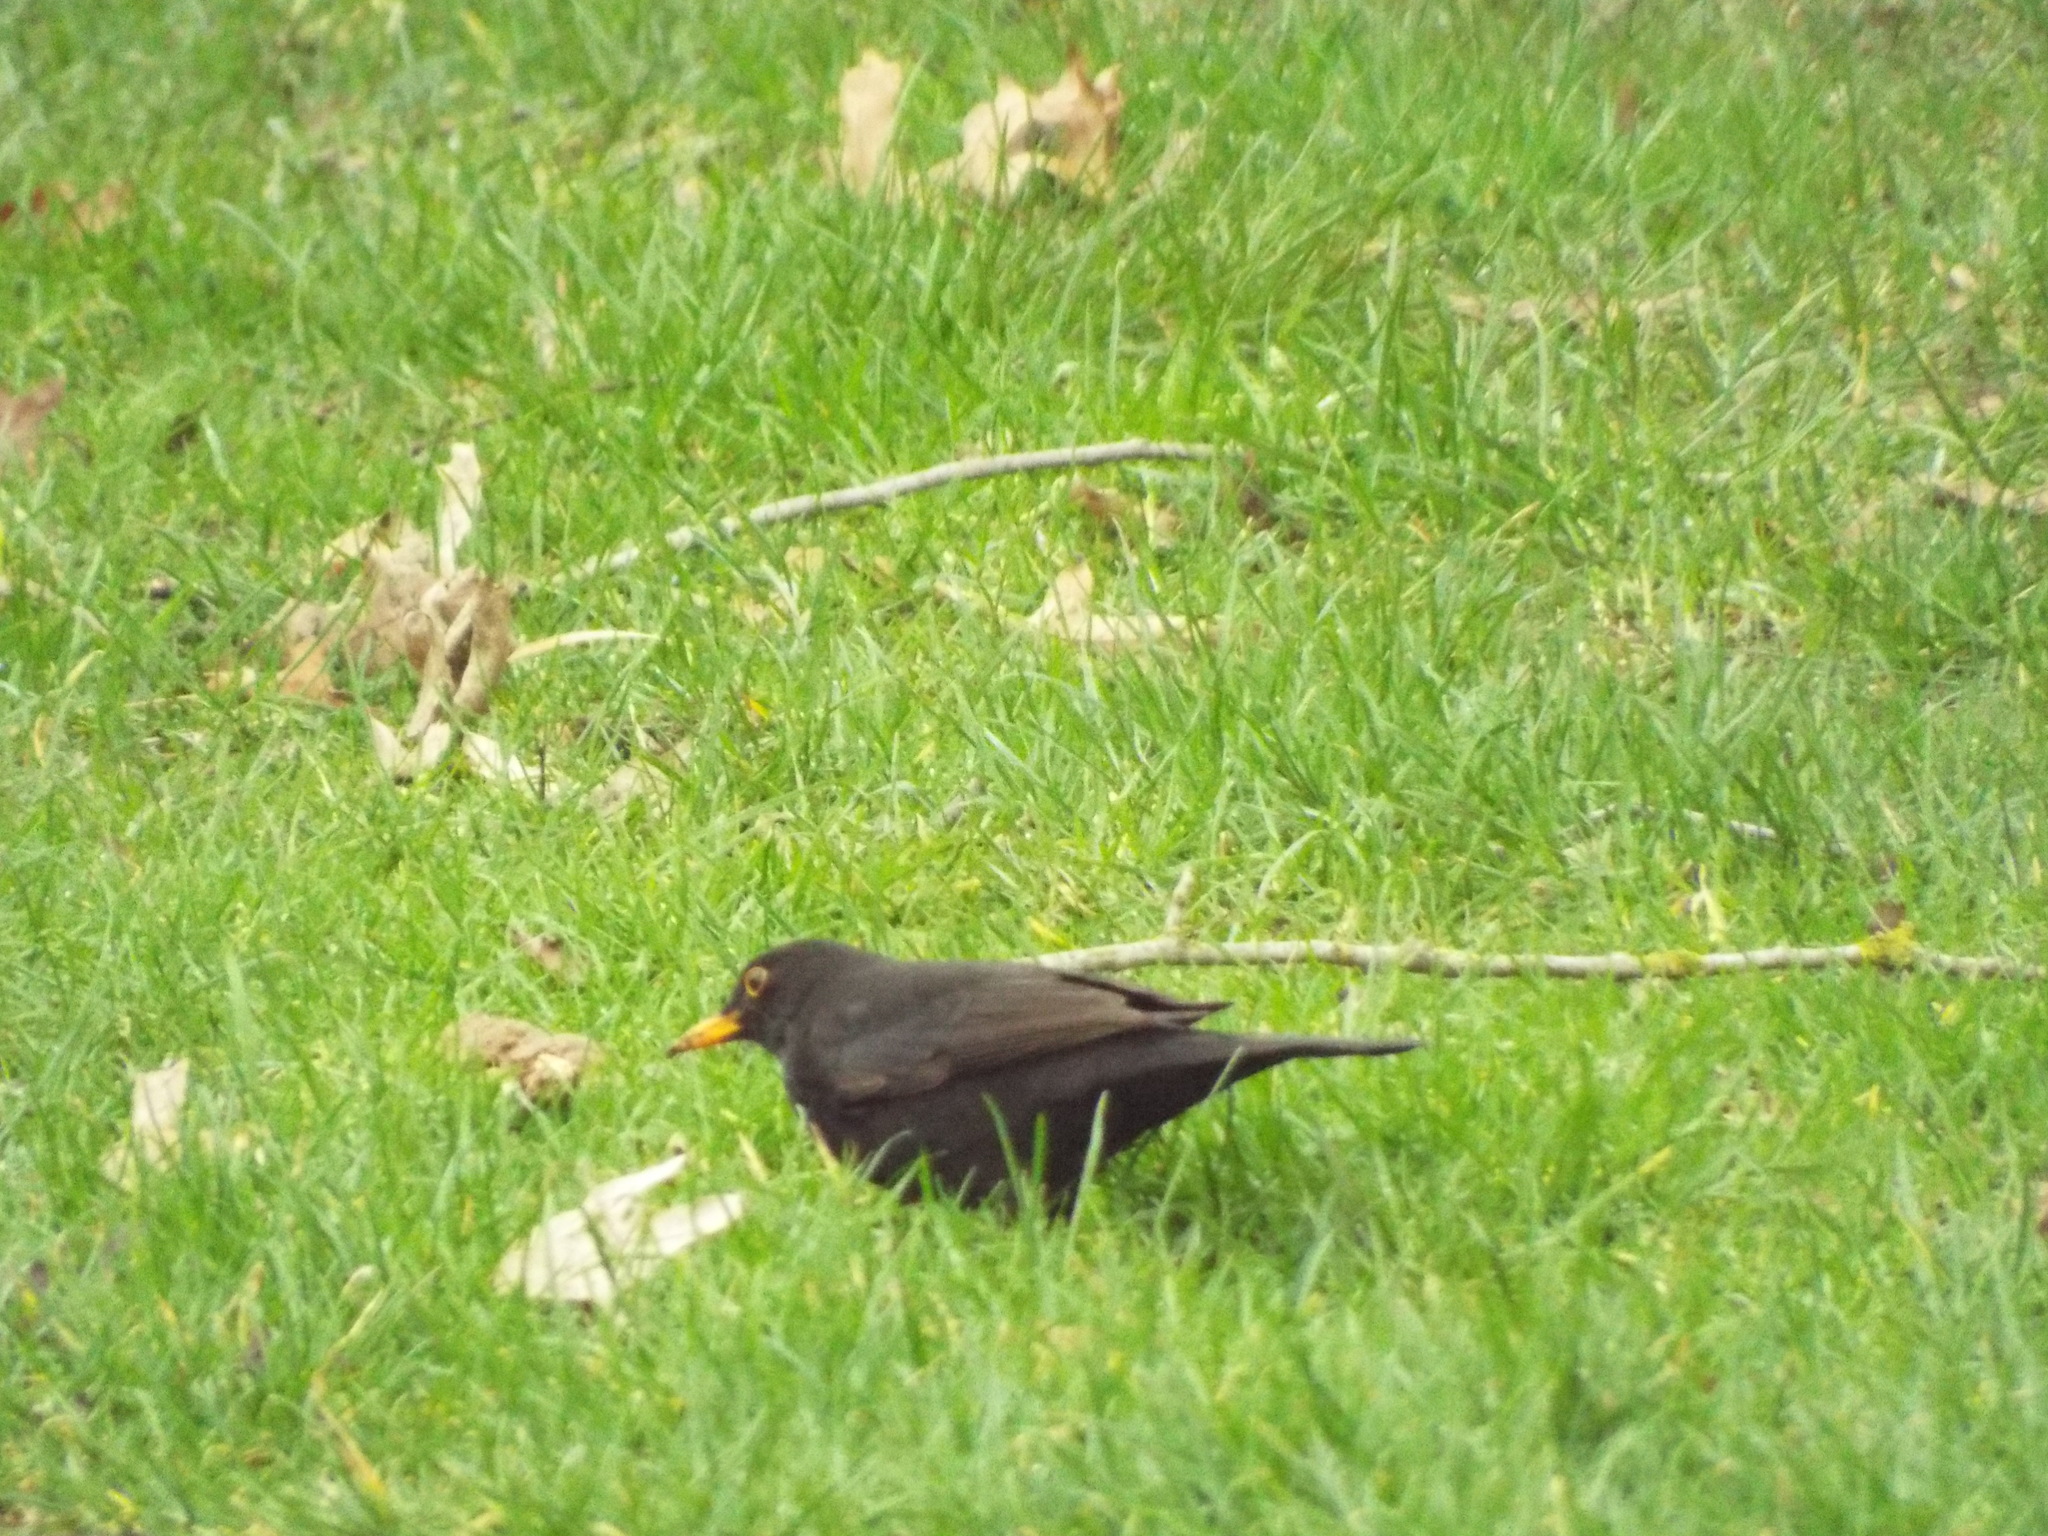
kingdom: Animalia
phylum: Chordata
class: Aves
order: Passeriformes
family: Turdidae
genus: Turdus
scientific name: Turdus merula
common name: Common blackbird
